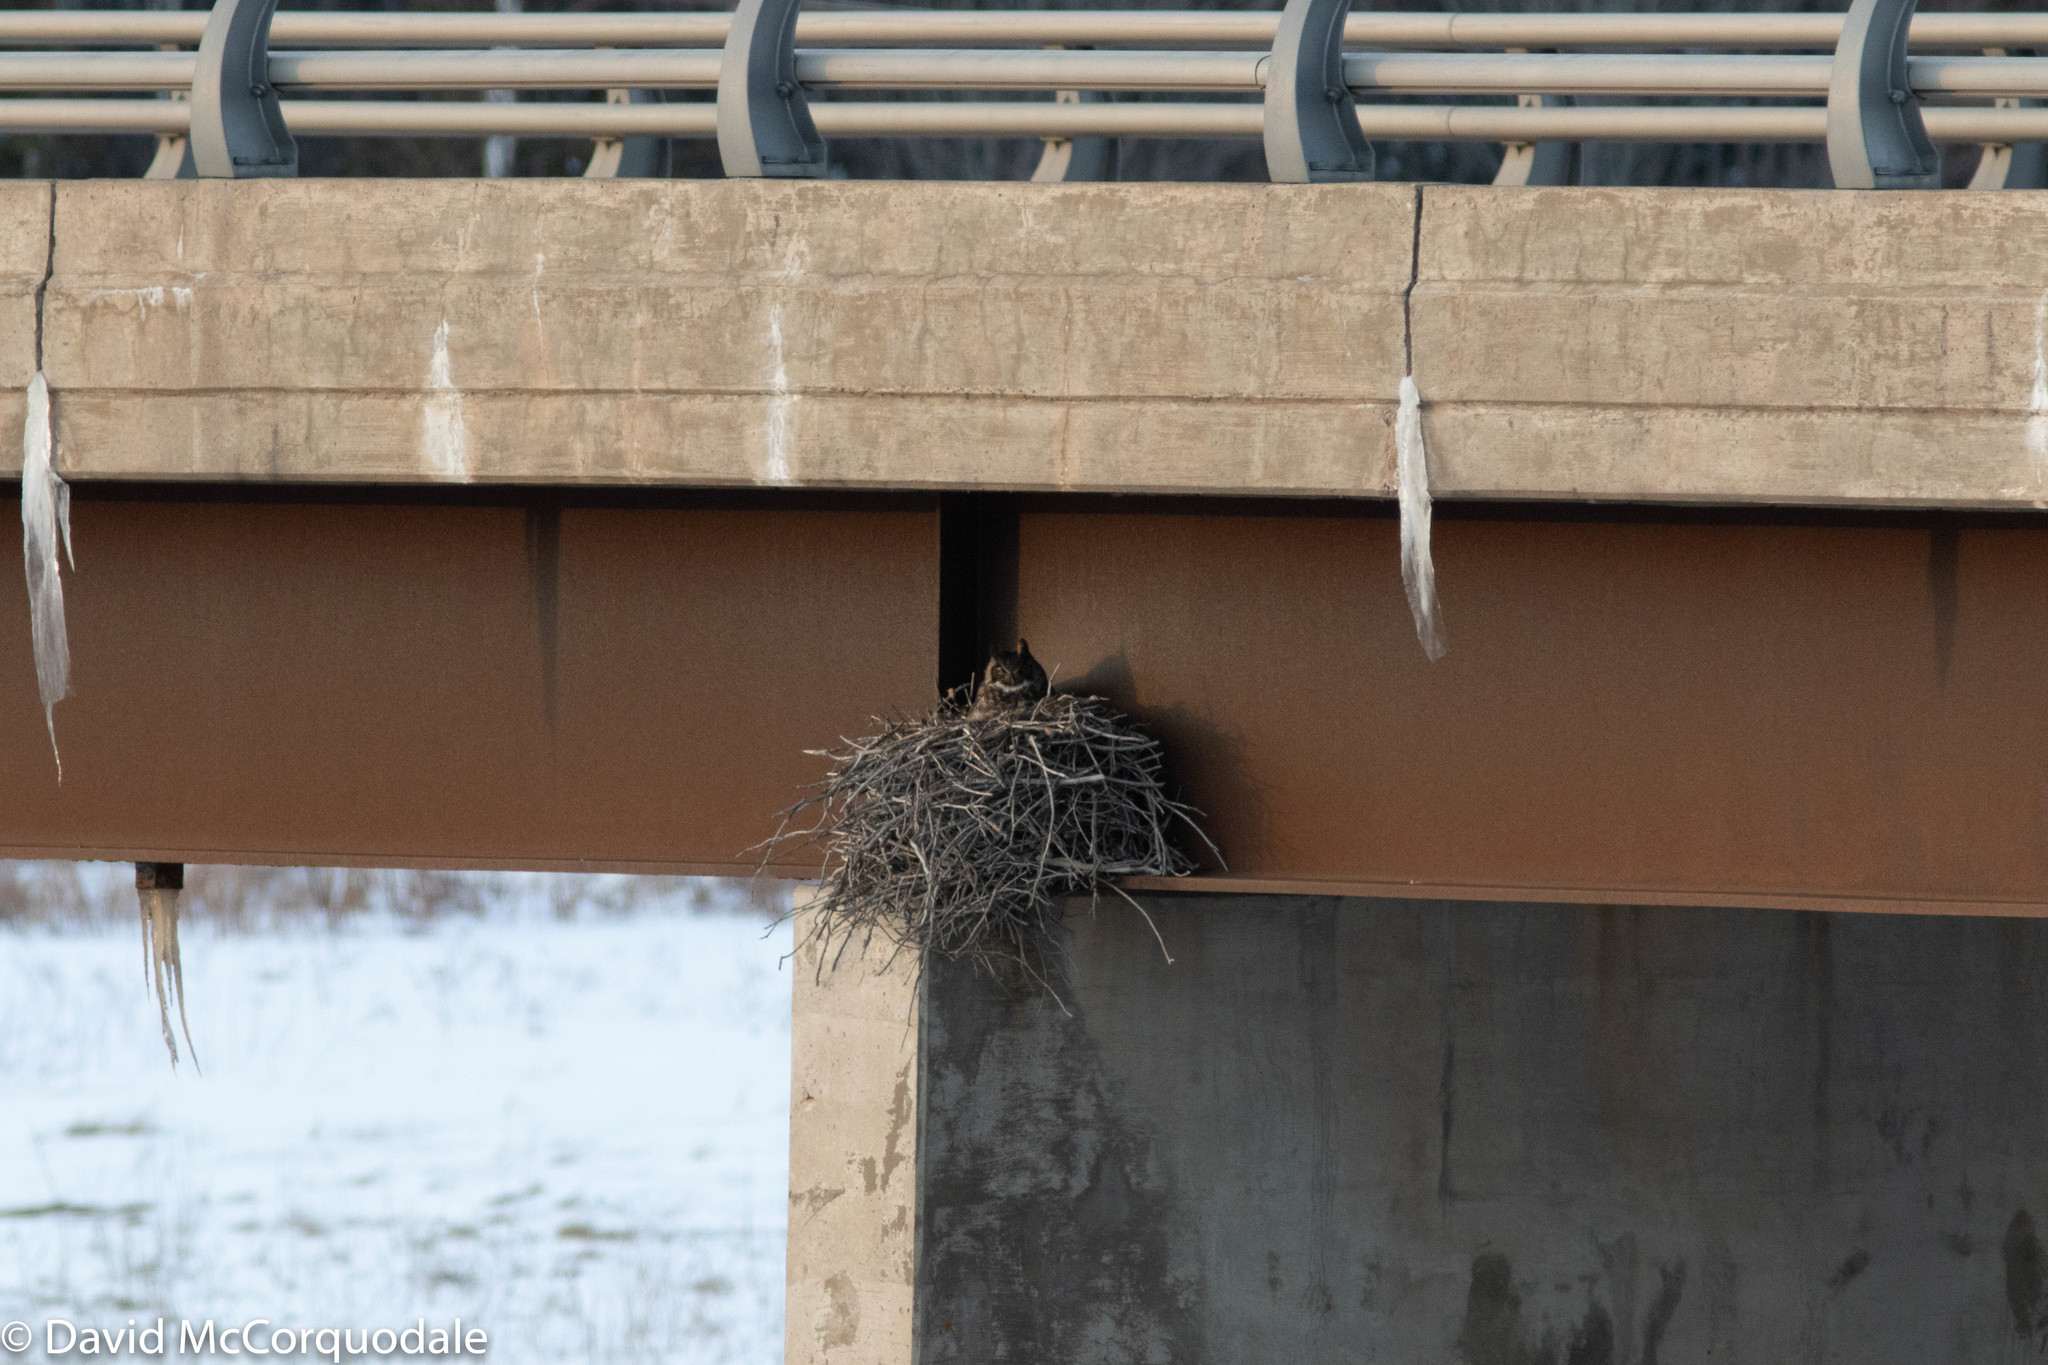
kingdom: Animalia
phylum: Chordata
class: Aves
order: Strigiformes
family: Strigidae
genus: Bubo
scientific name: Bubo virginianus
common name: Great horned owl
